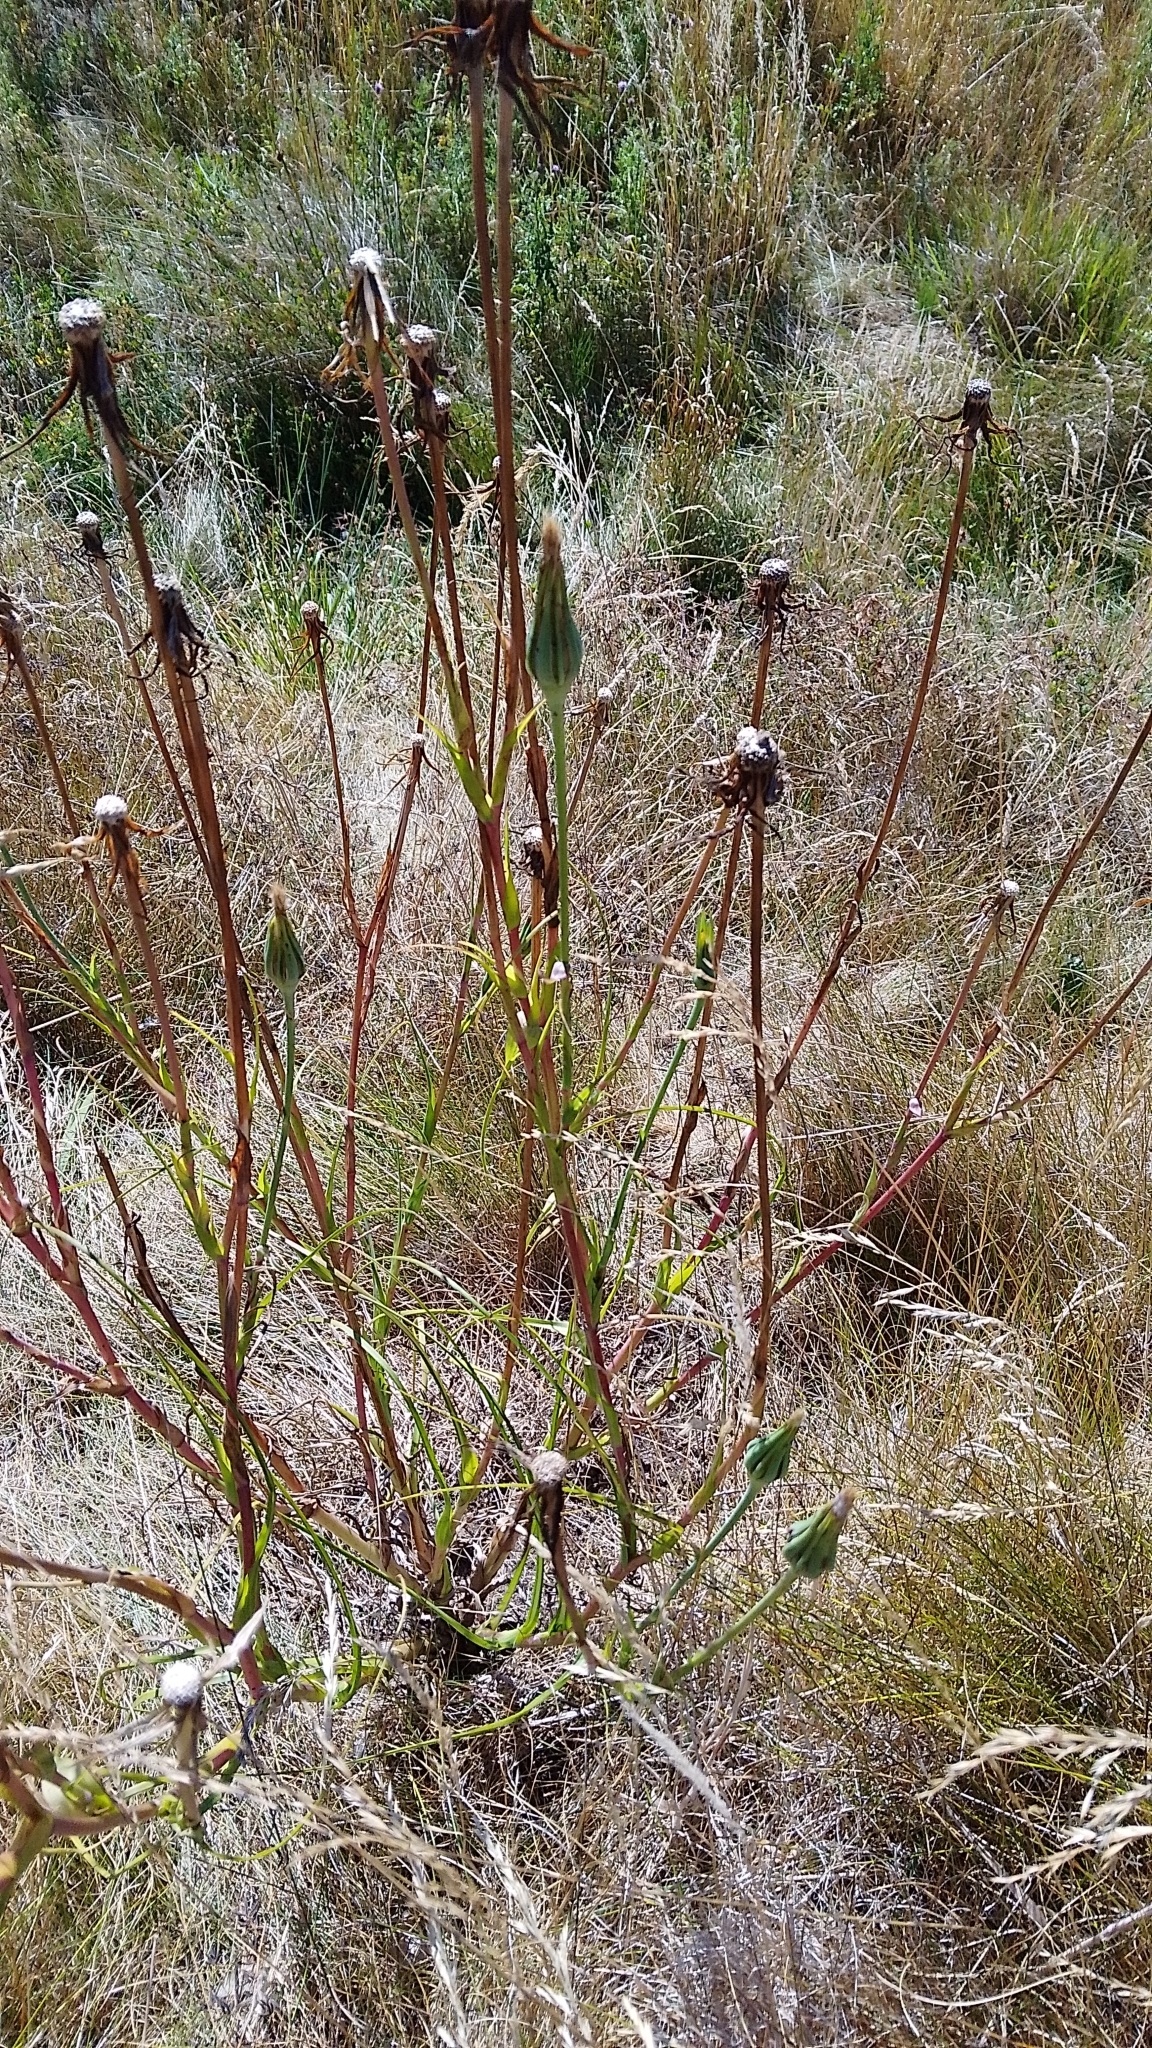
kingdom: Plantae
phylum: Tracheophyta
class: Magnoliopsida
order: Asterales
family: Asteraceae
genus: Tragopogon
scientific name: Tragopogon pratensis
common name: Goat's-beard
